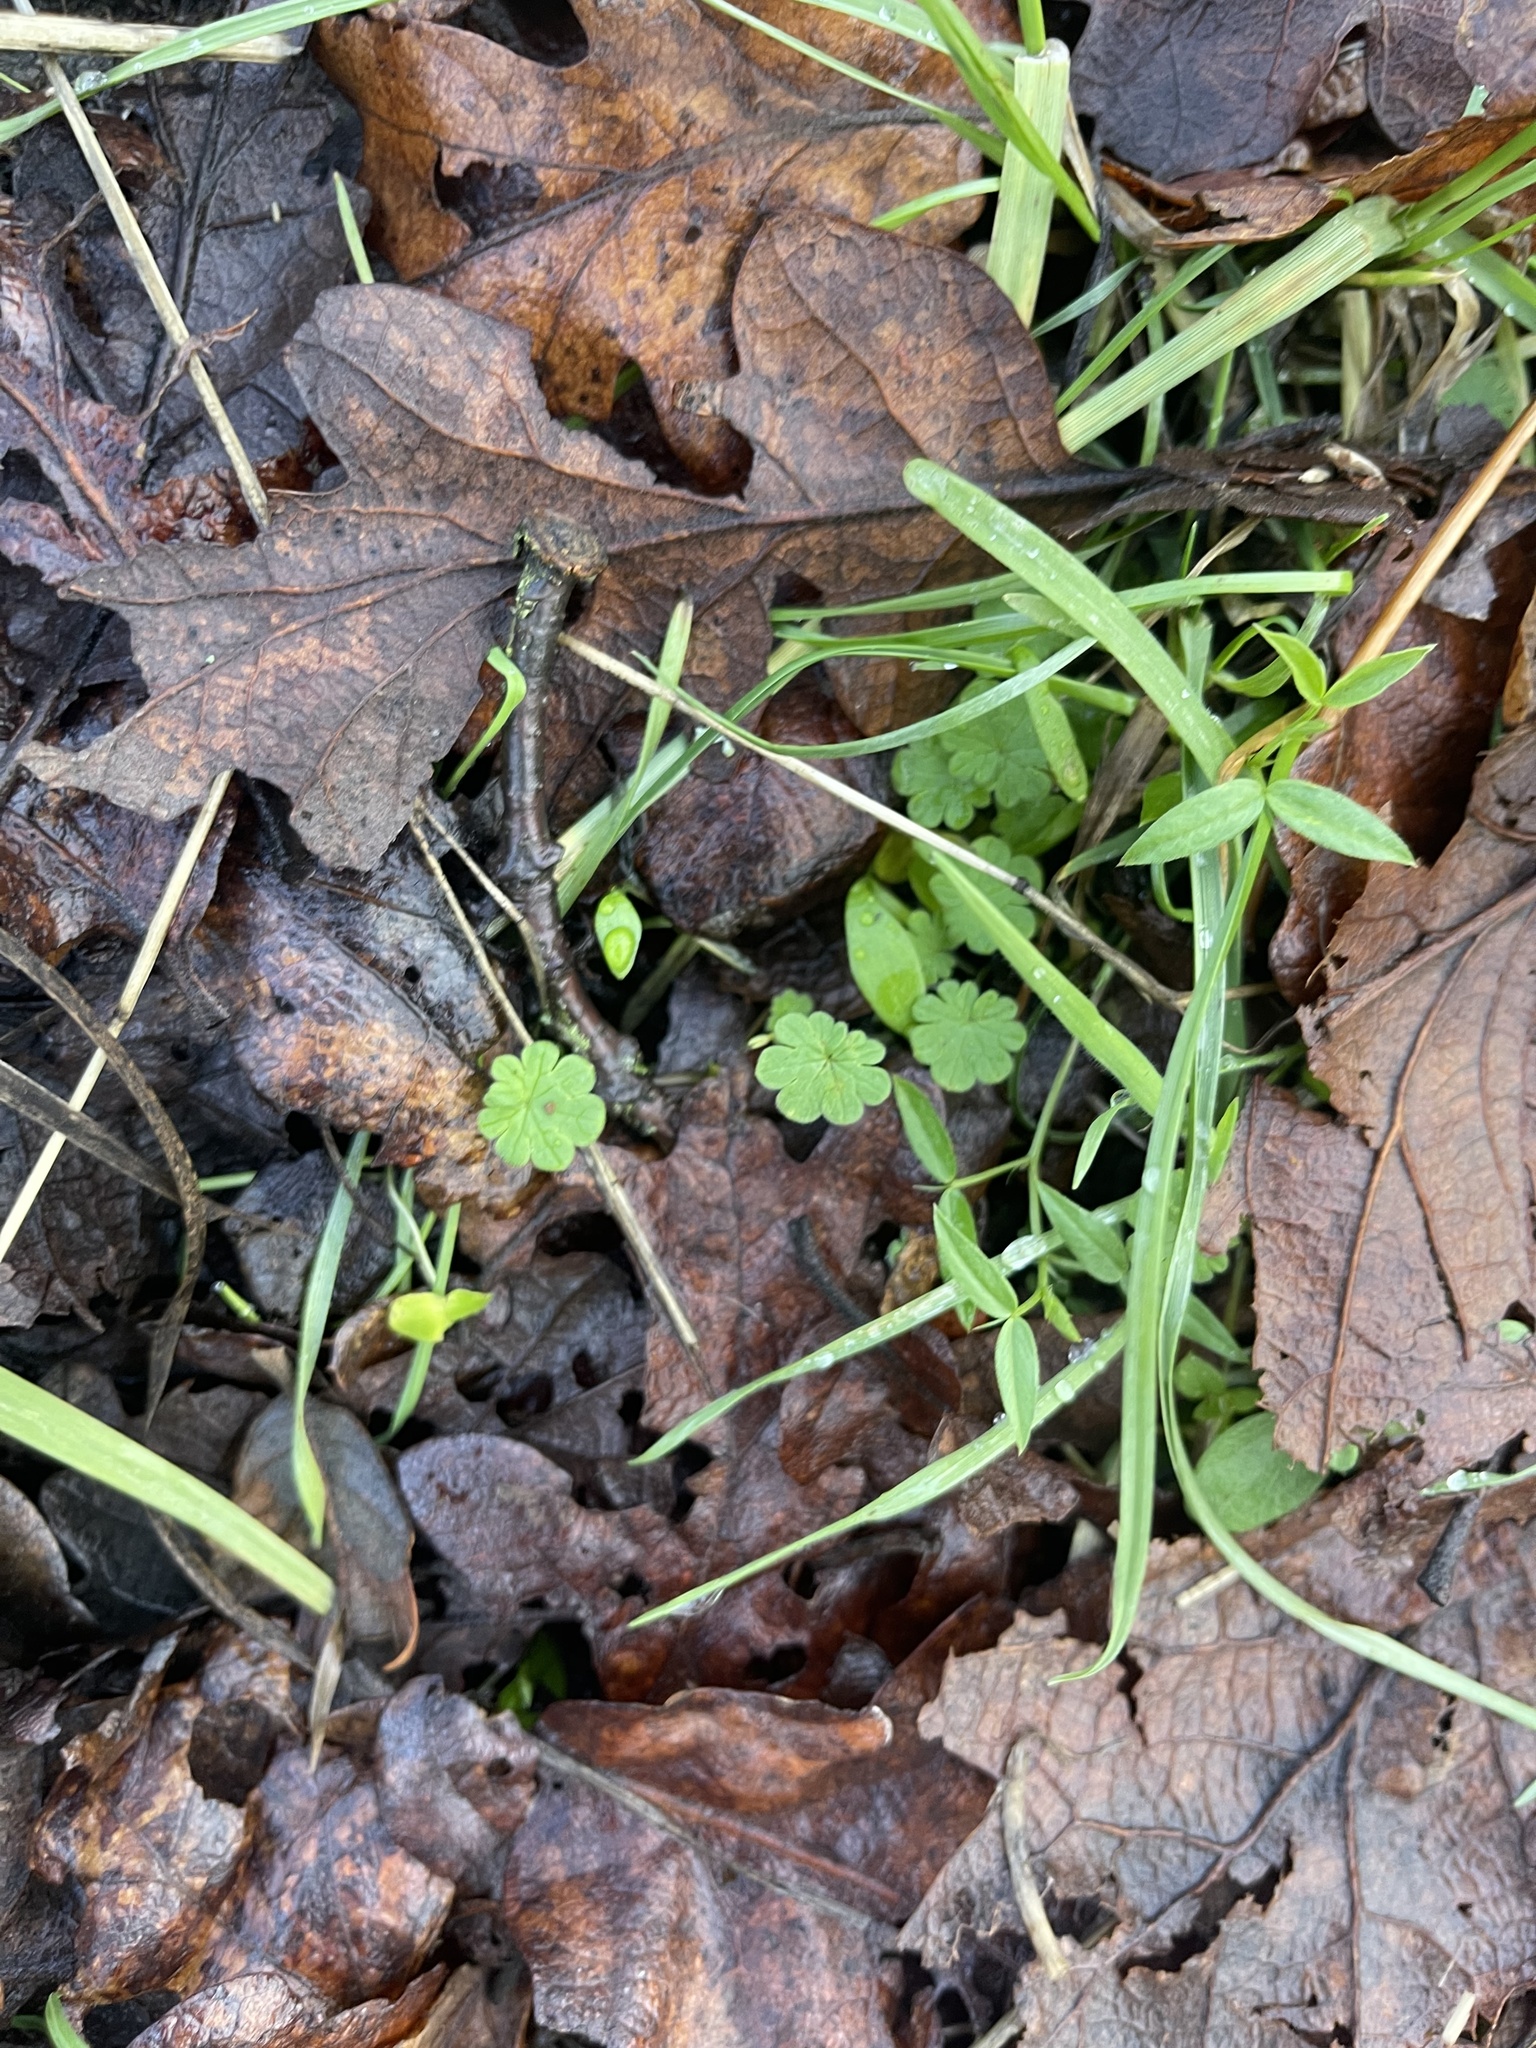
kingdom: Plantae
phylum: Tracheophyta
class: Magnoliopsida
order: Geraniales
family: Geraniaceae
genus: Geranium
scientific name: Geranium molle
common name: Dove's-foot crane's-bill
